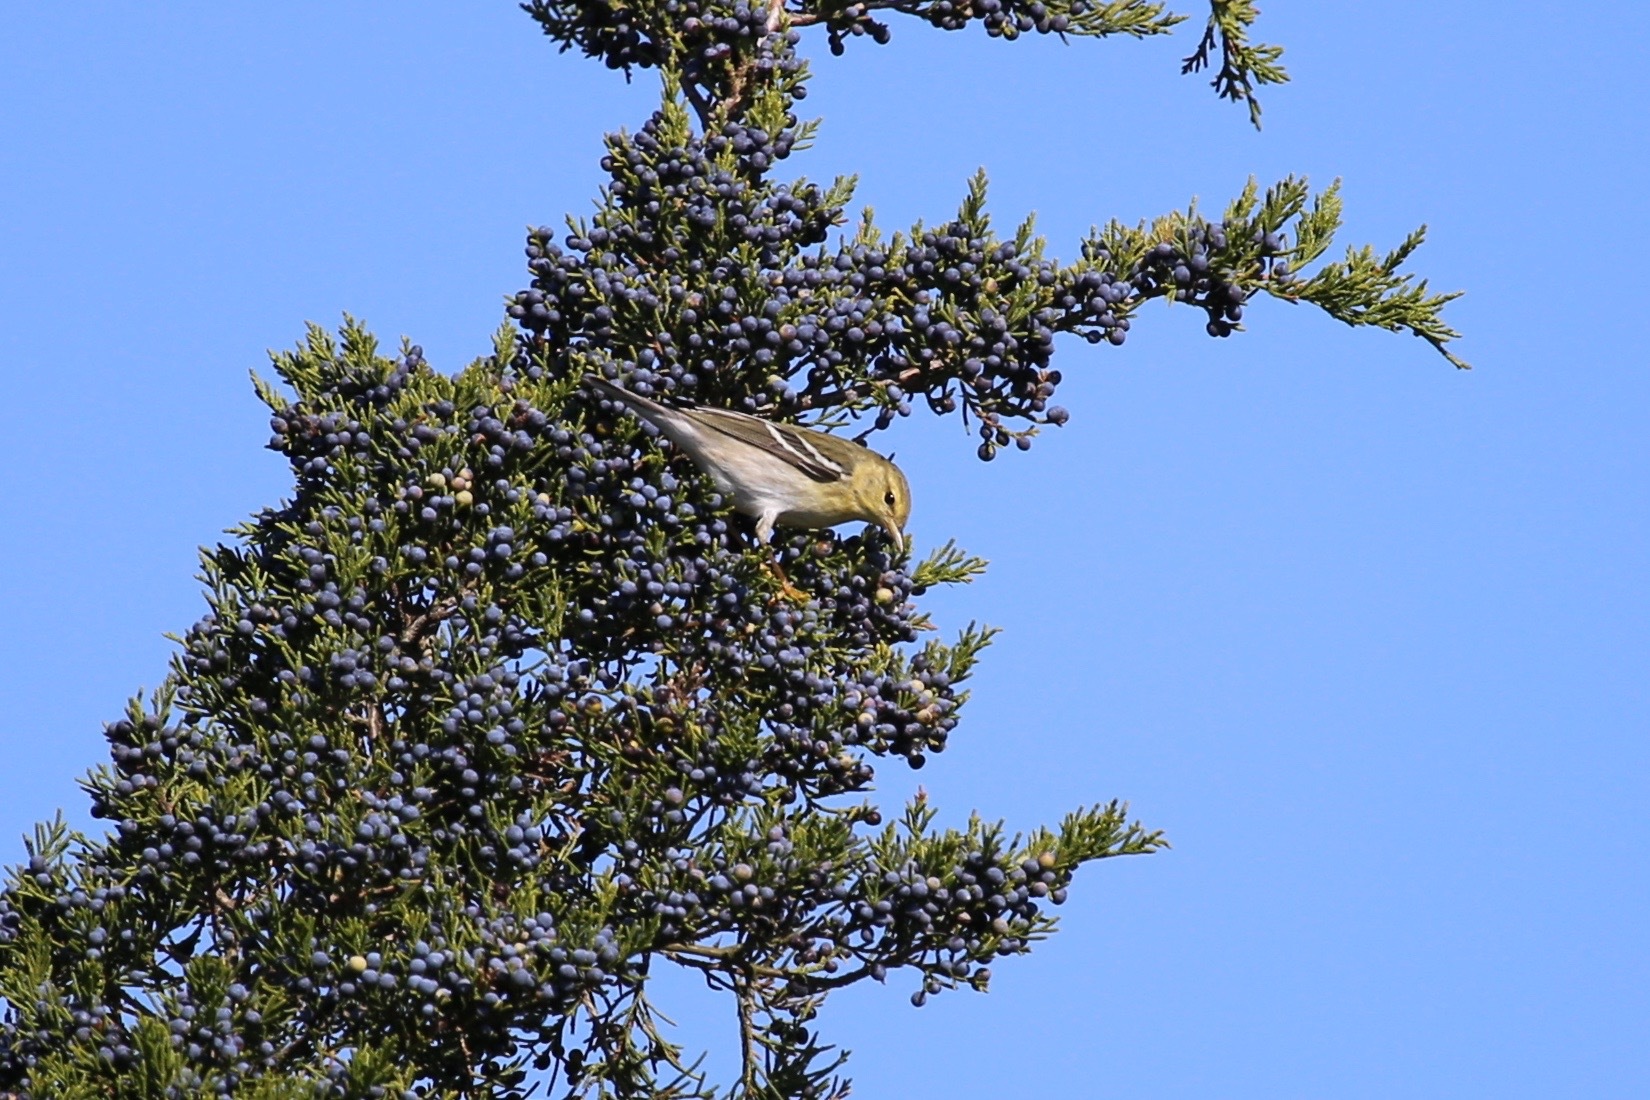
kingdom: Animalia
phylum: Chordata
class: Aves
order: Passeriformes
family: Parulidae
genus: Setophaga
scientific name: Setophaga striata
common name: Blackpoll warbler
